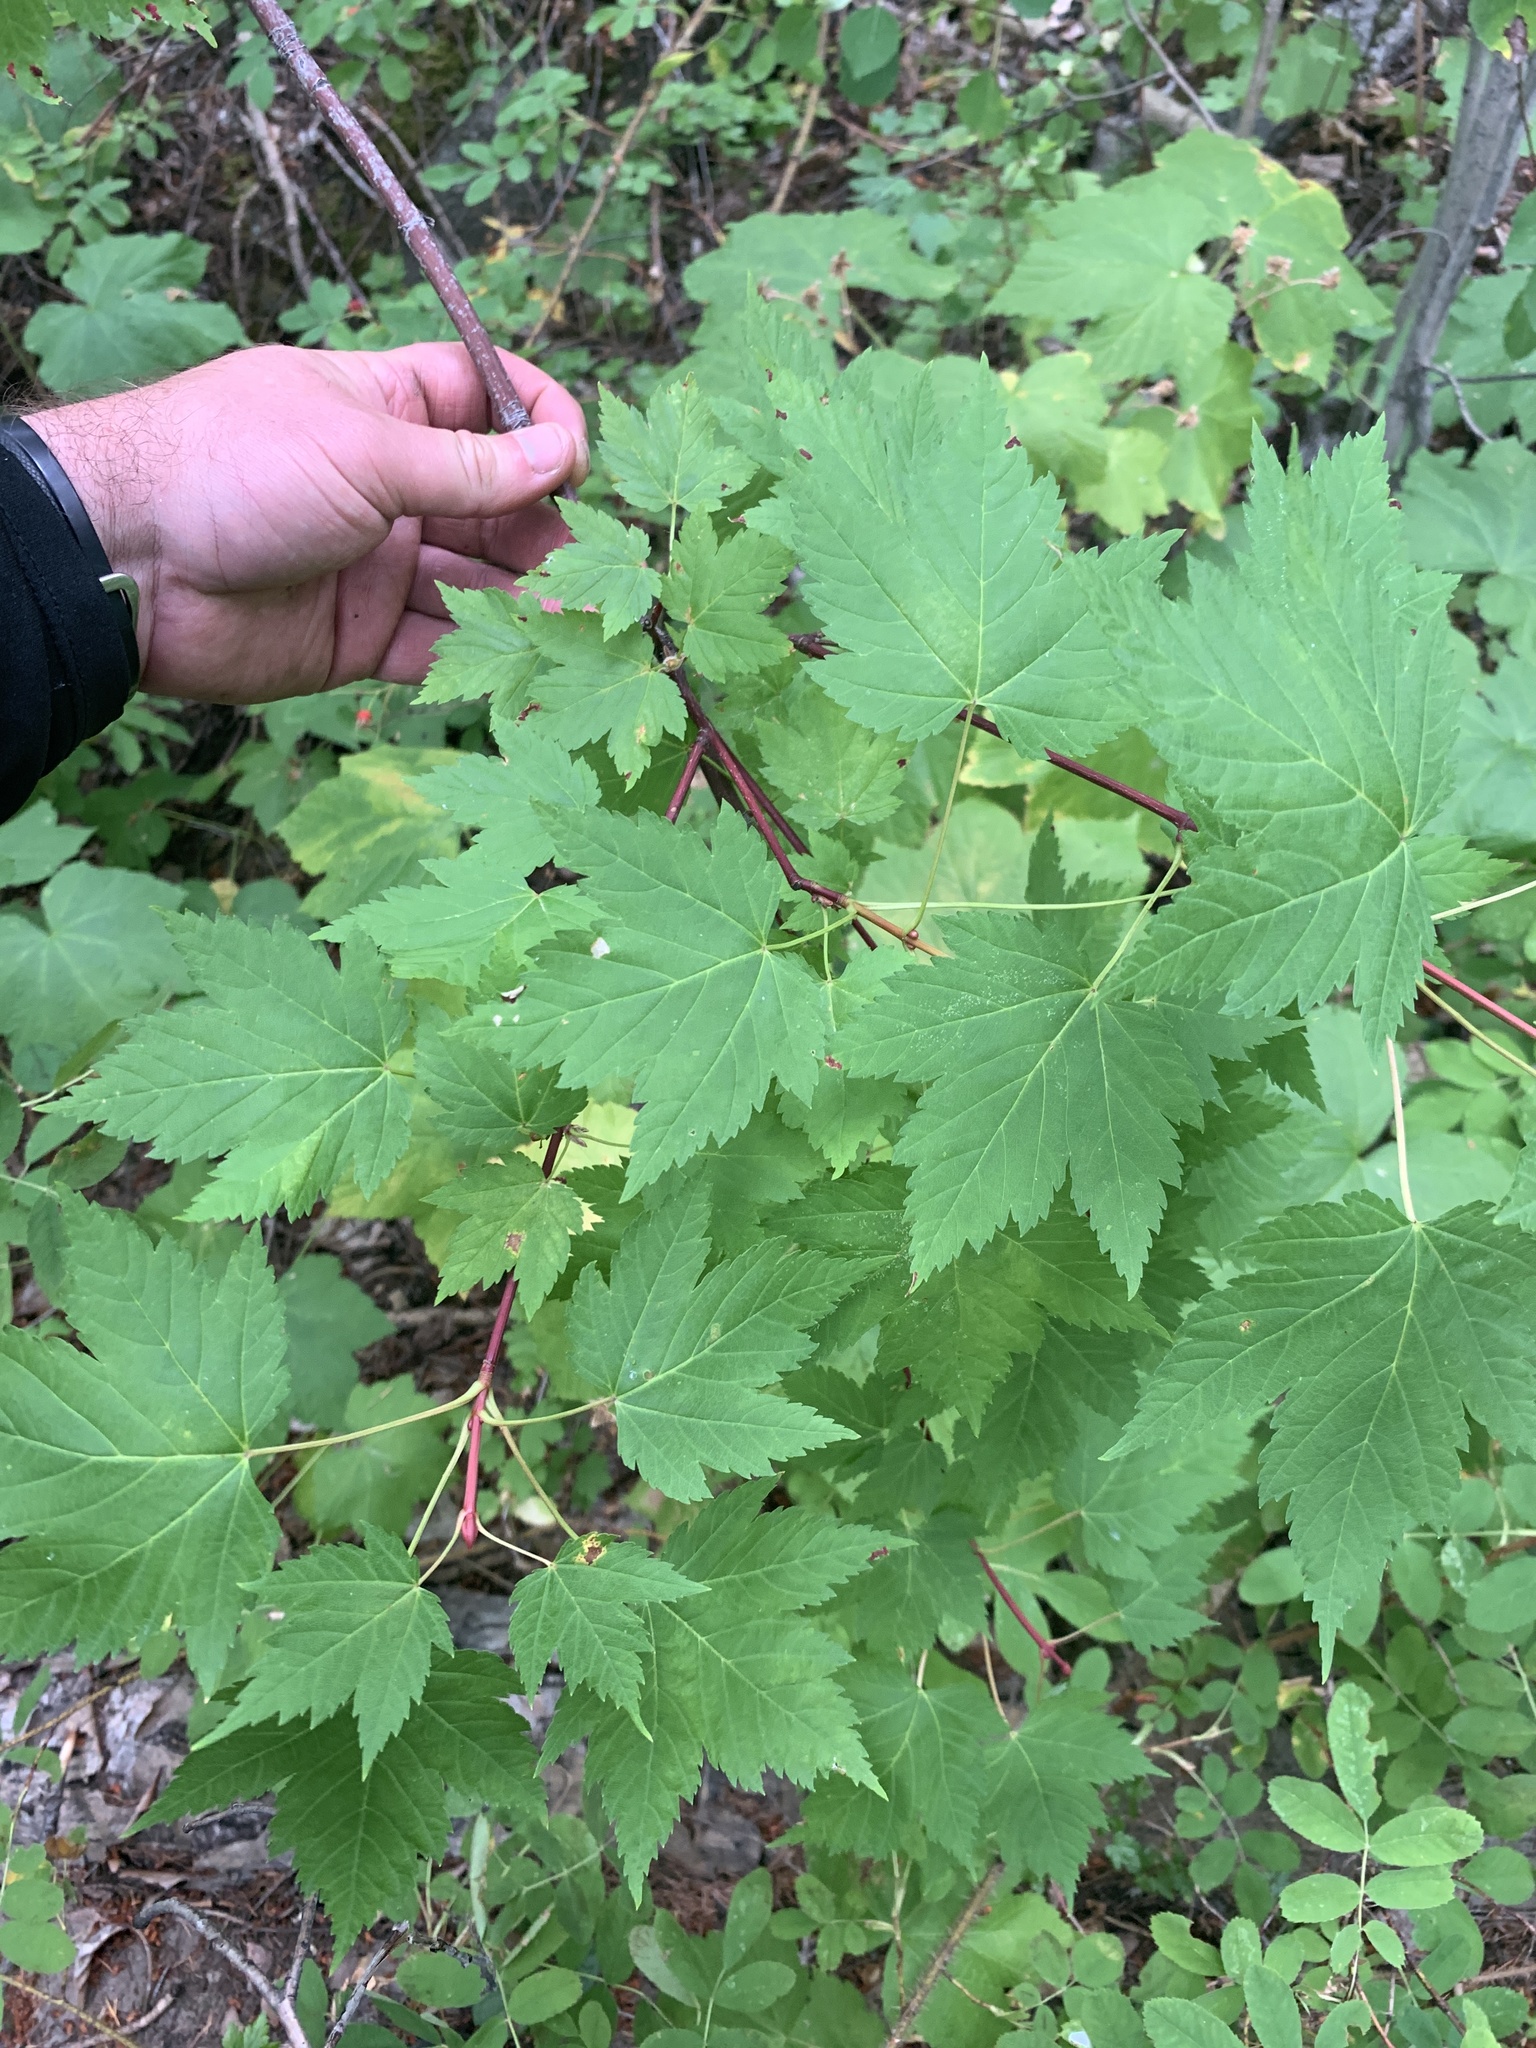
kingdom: Plantae
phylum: Tracheophyta
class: Magnoliopsida
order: Sapindales
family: Sapindaceae
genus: Acer
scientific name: Acer glabrum
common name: Rocky mountain maple
